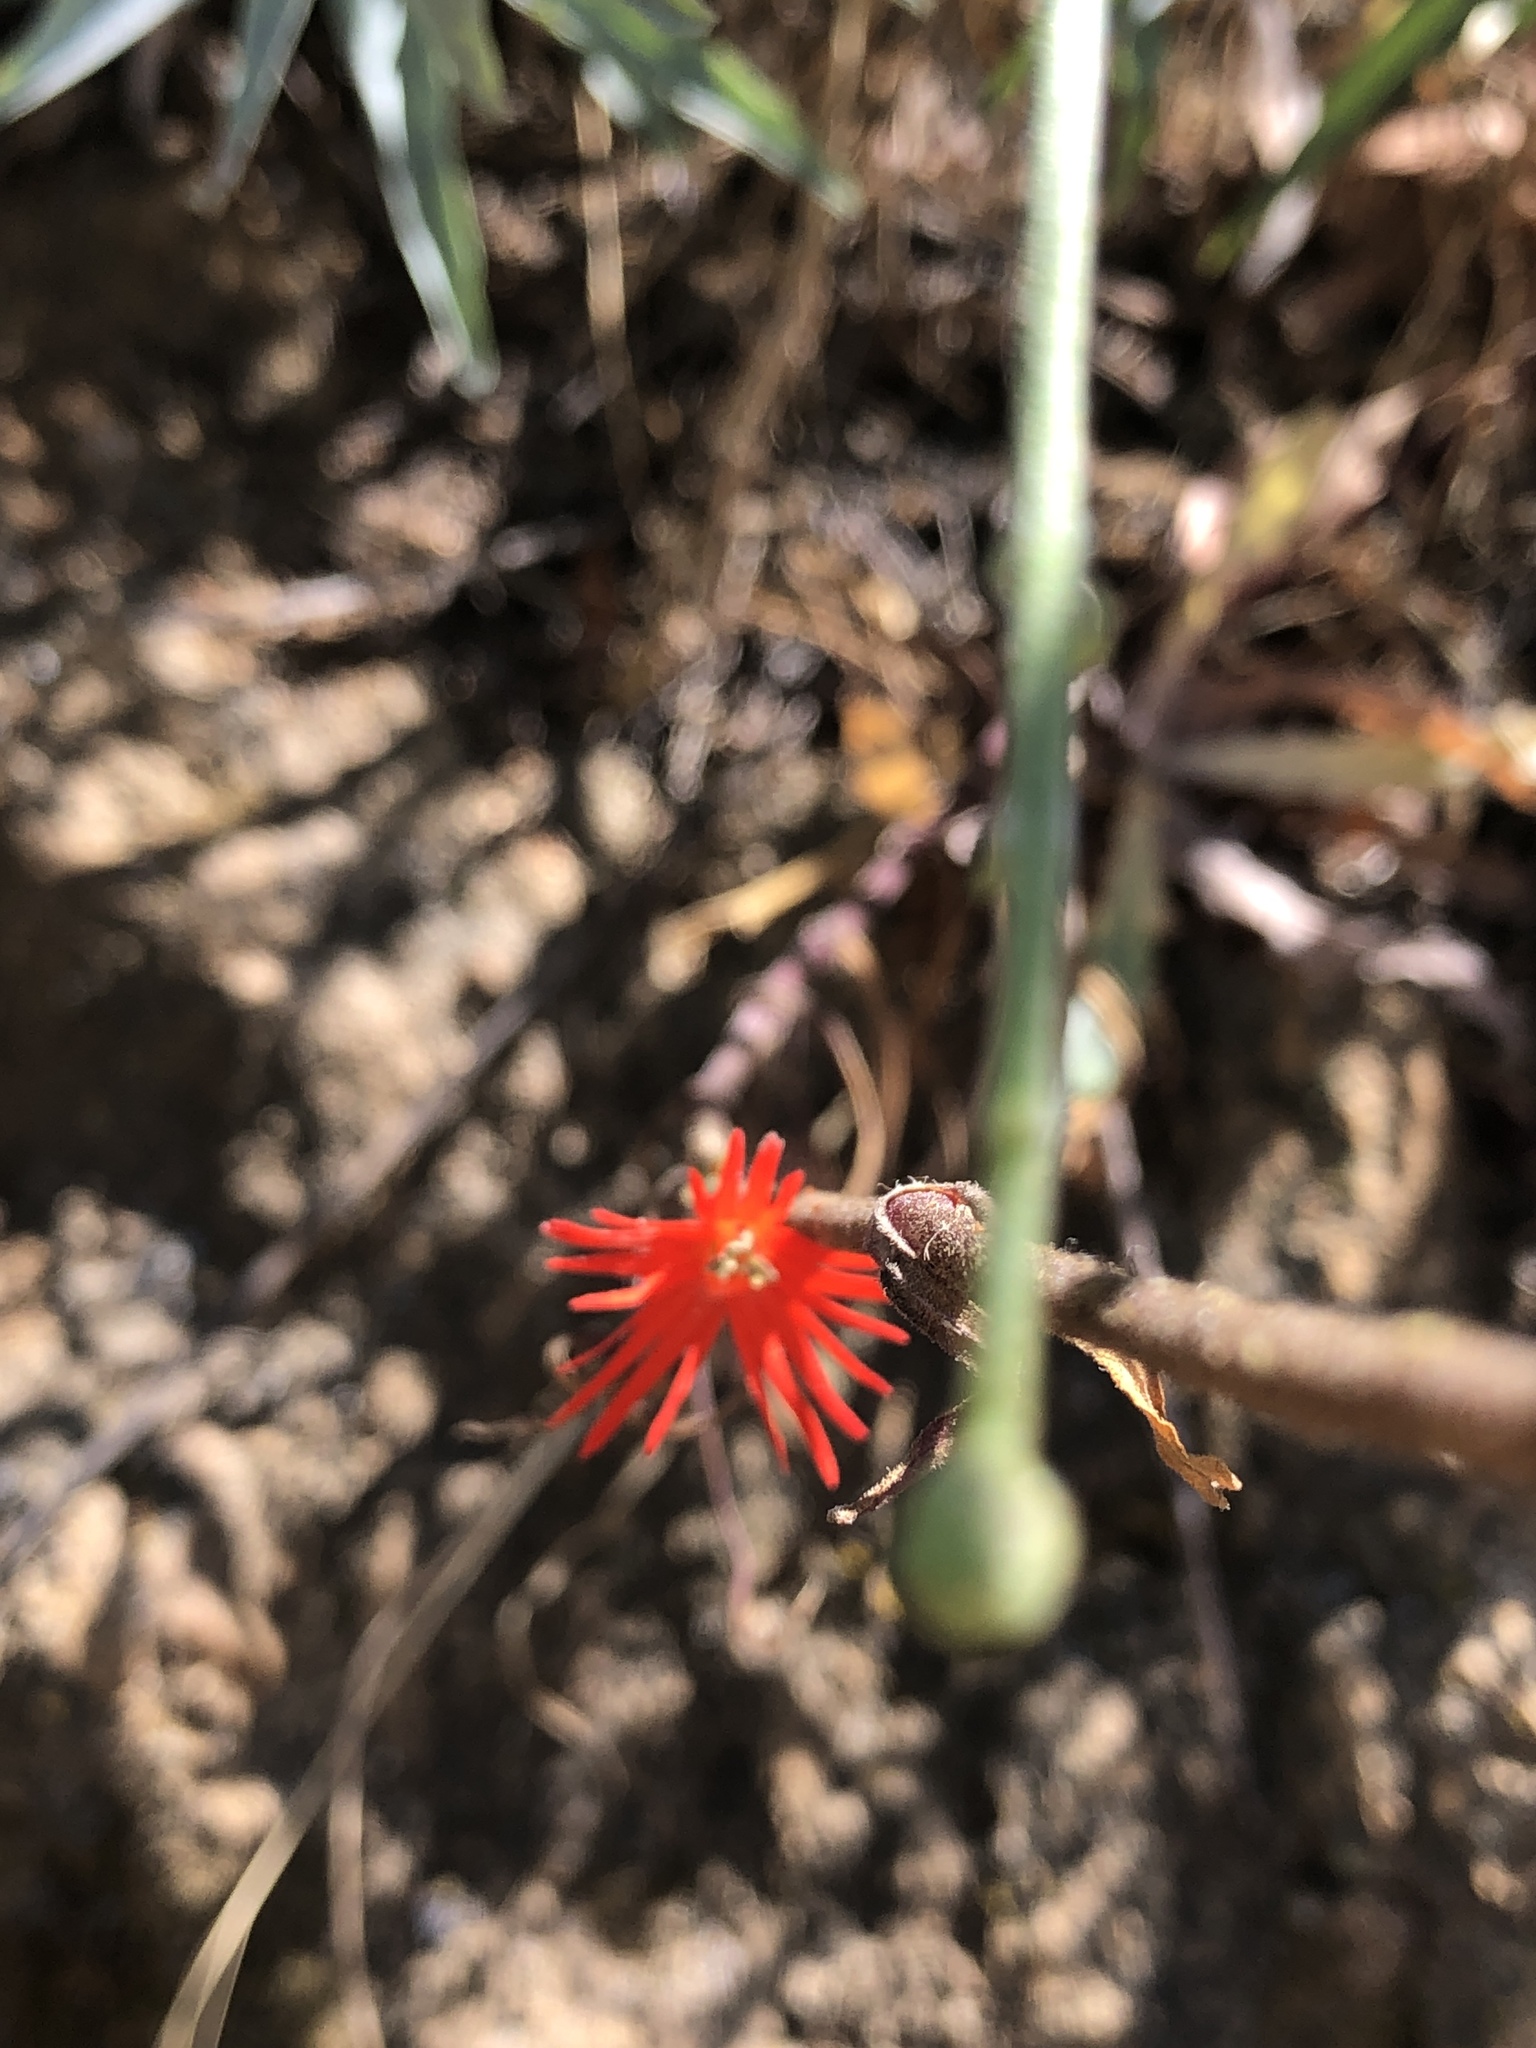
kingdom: Plantae
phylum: Tracheophyta
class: Magnoliopsida
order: Caryophyllales
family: Caryophyllaceae
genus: Silene
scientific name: Silene laciniata
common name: Indian-pink
